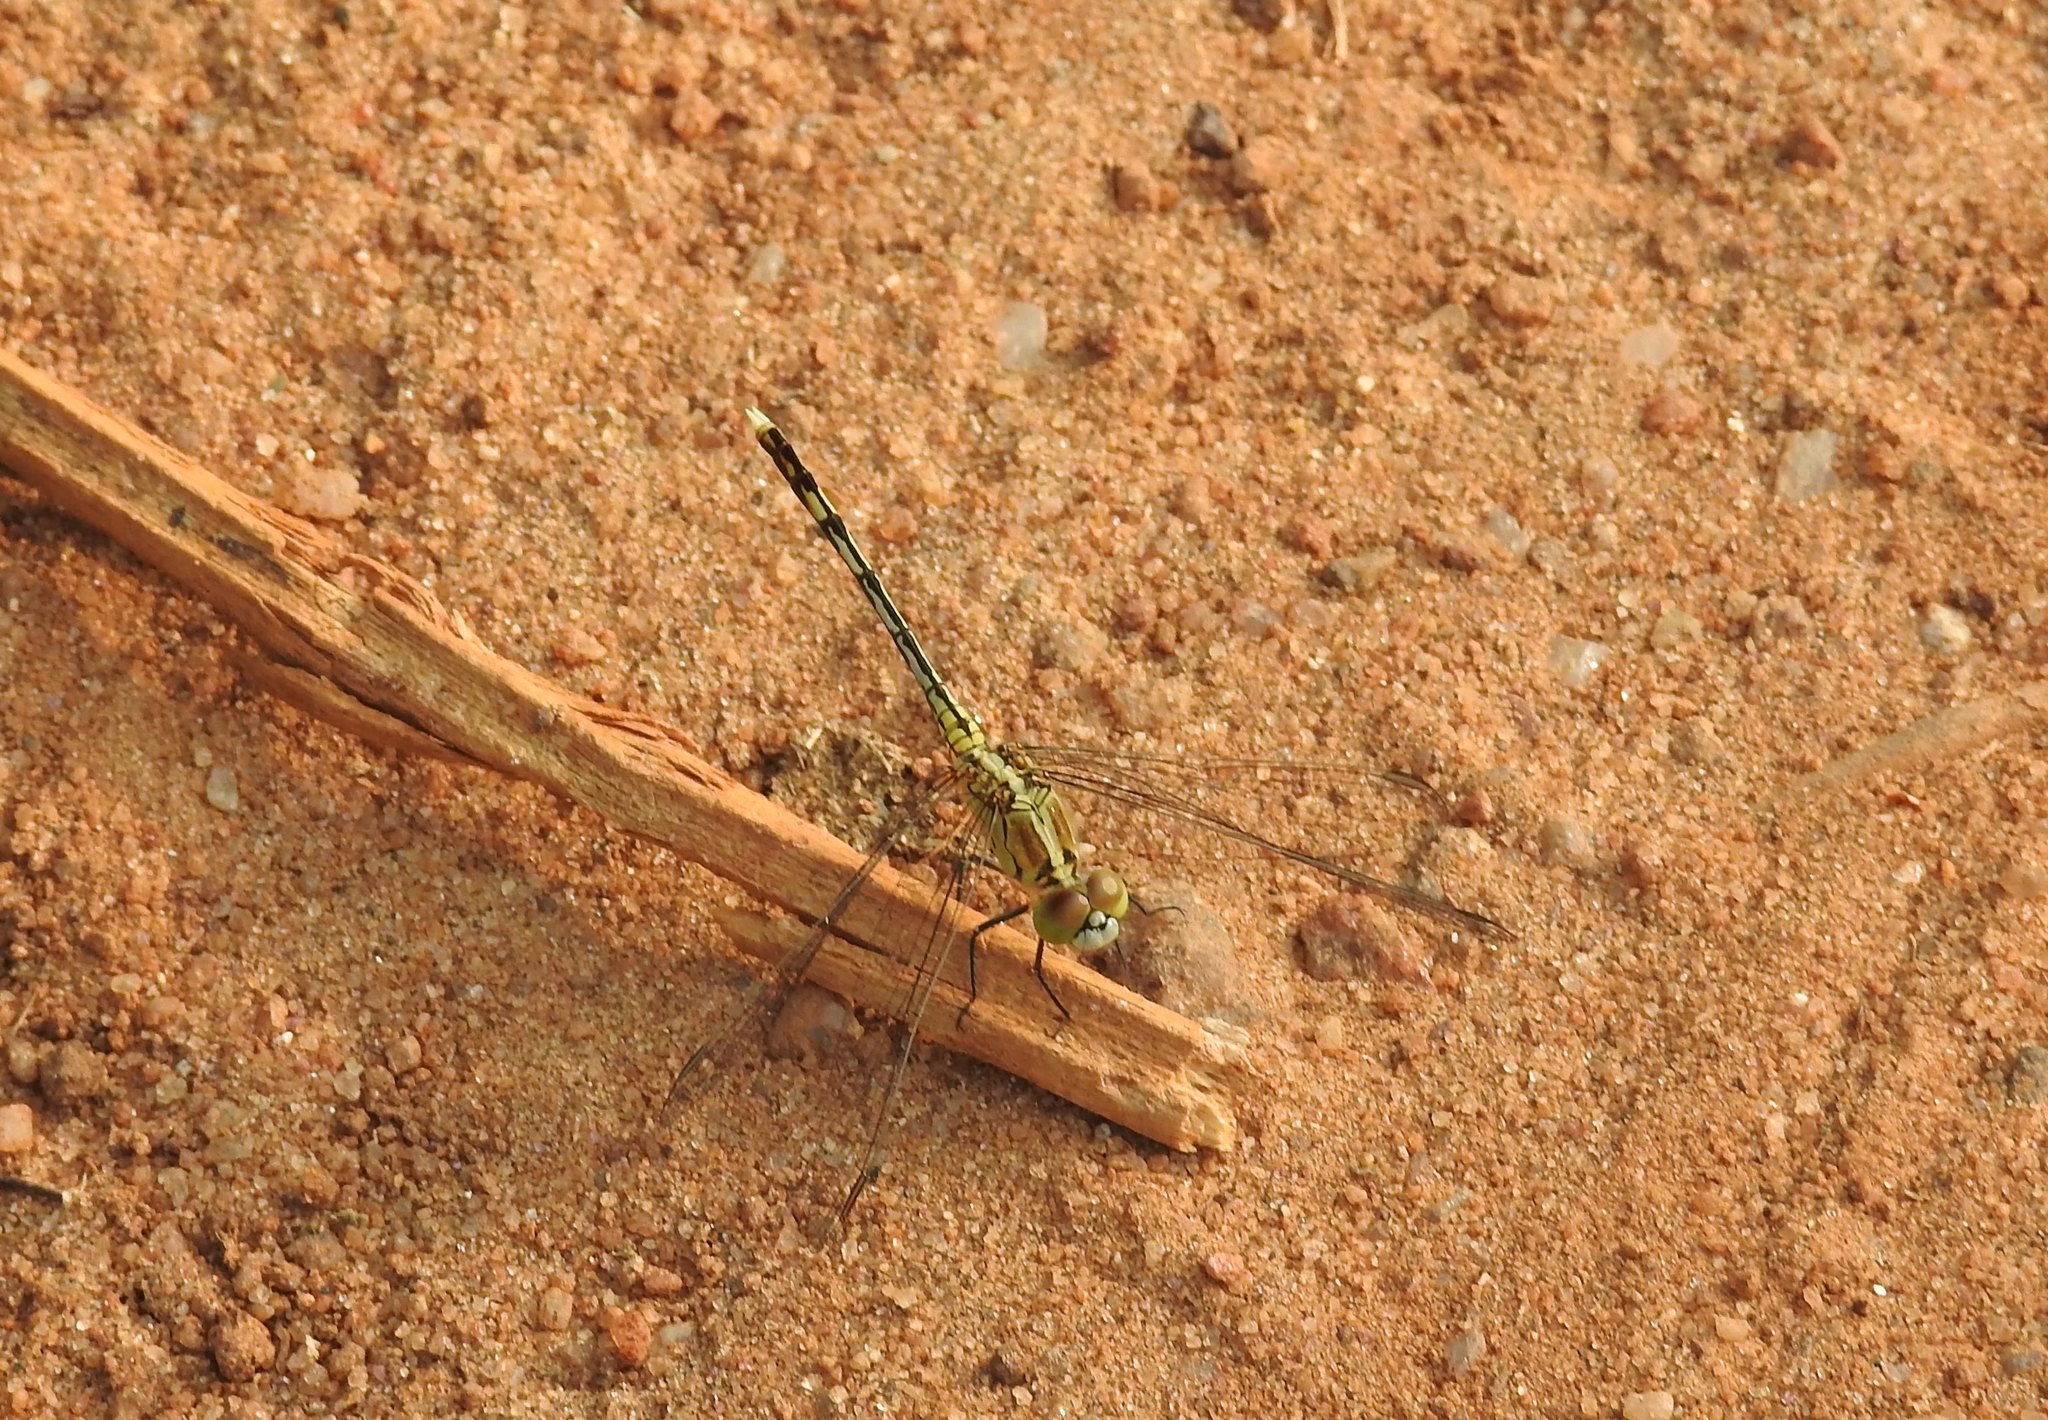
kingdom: Animalia
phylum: Arthropoda
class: Insecta
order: Odonata
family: Libellulidae
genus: Diplacodes
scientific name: Diplacodes trivialis
